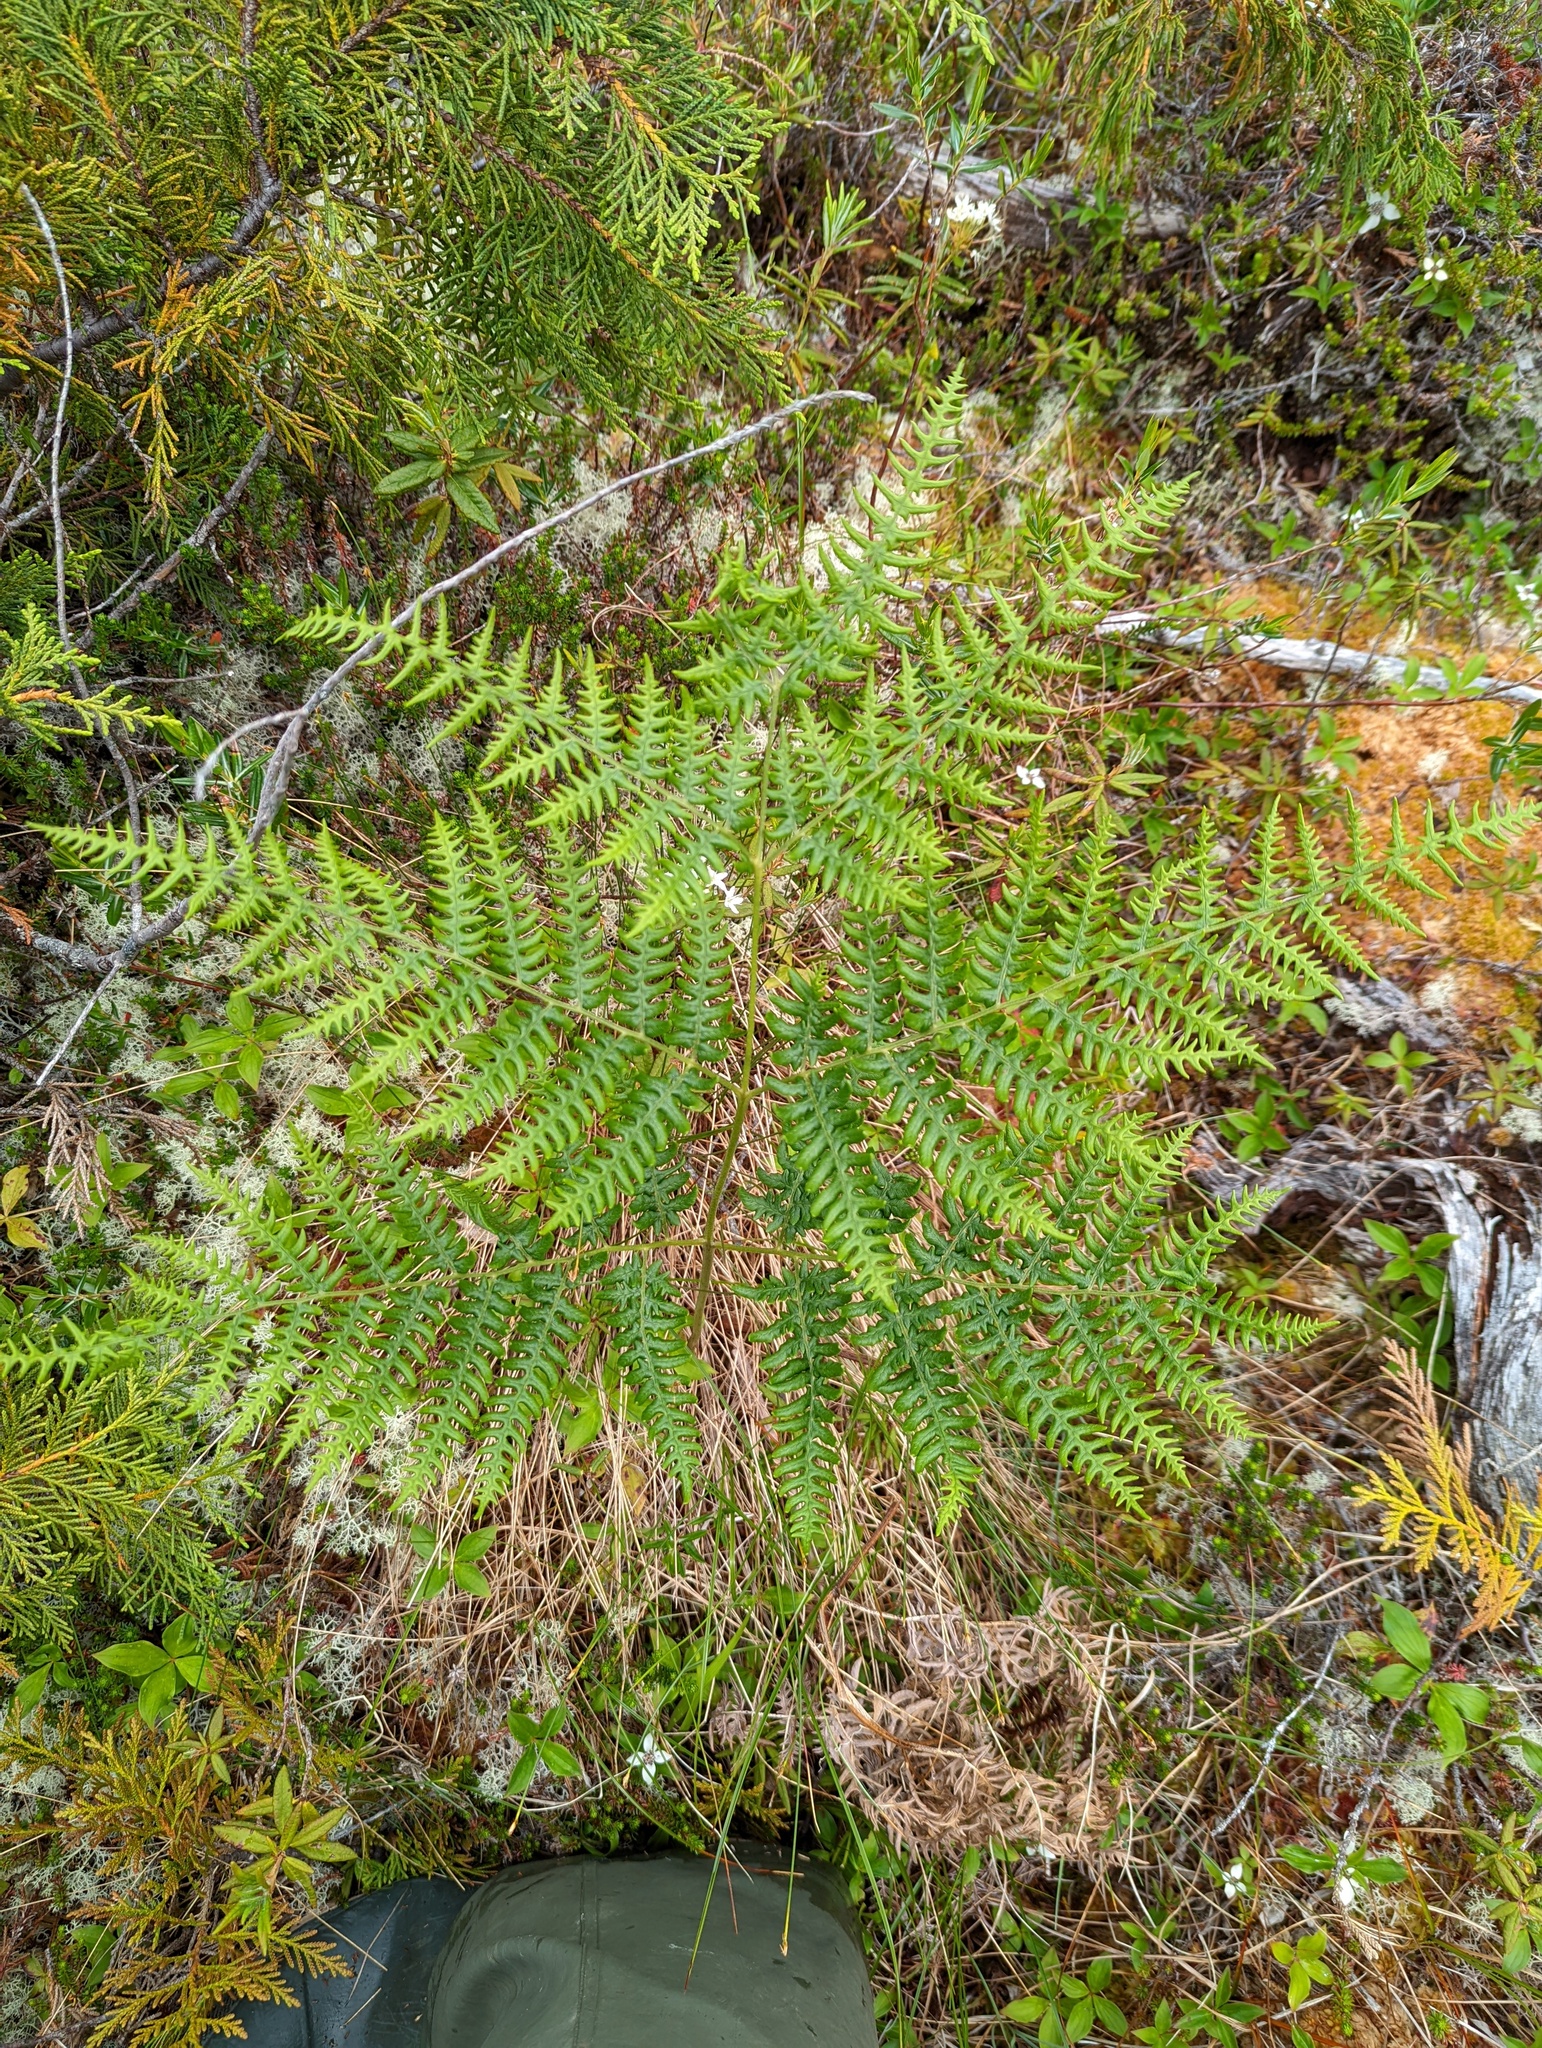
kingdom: Plantae
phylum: Tracheophyta
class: Polypodiopsida
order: Polypodiales
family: Dennstaedtiaceae
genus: Pteridium
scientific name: Pteridium aquilinum
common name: Bracken
